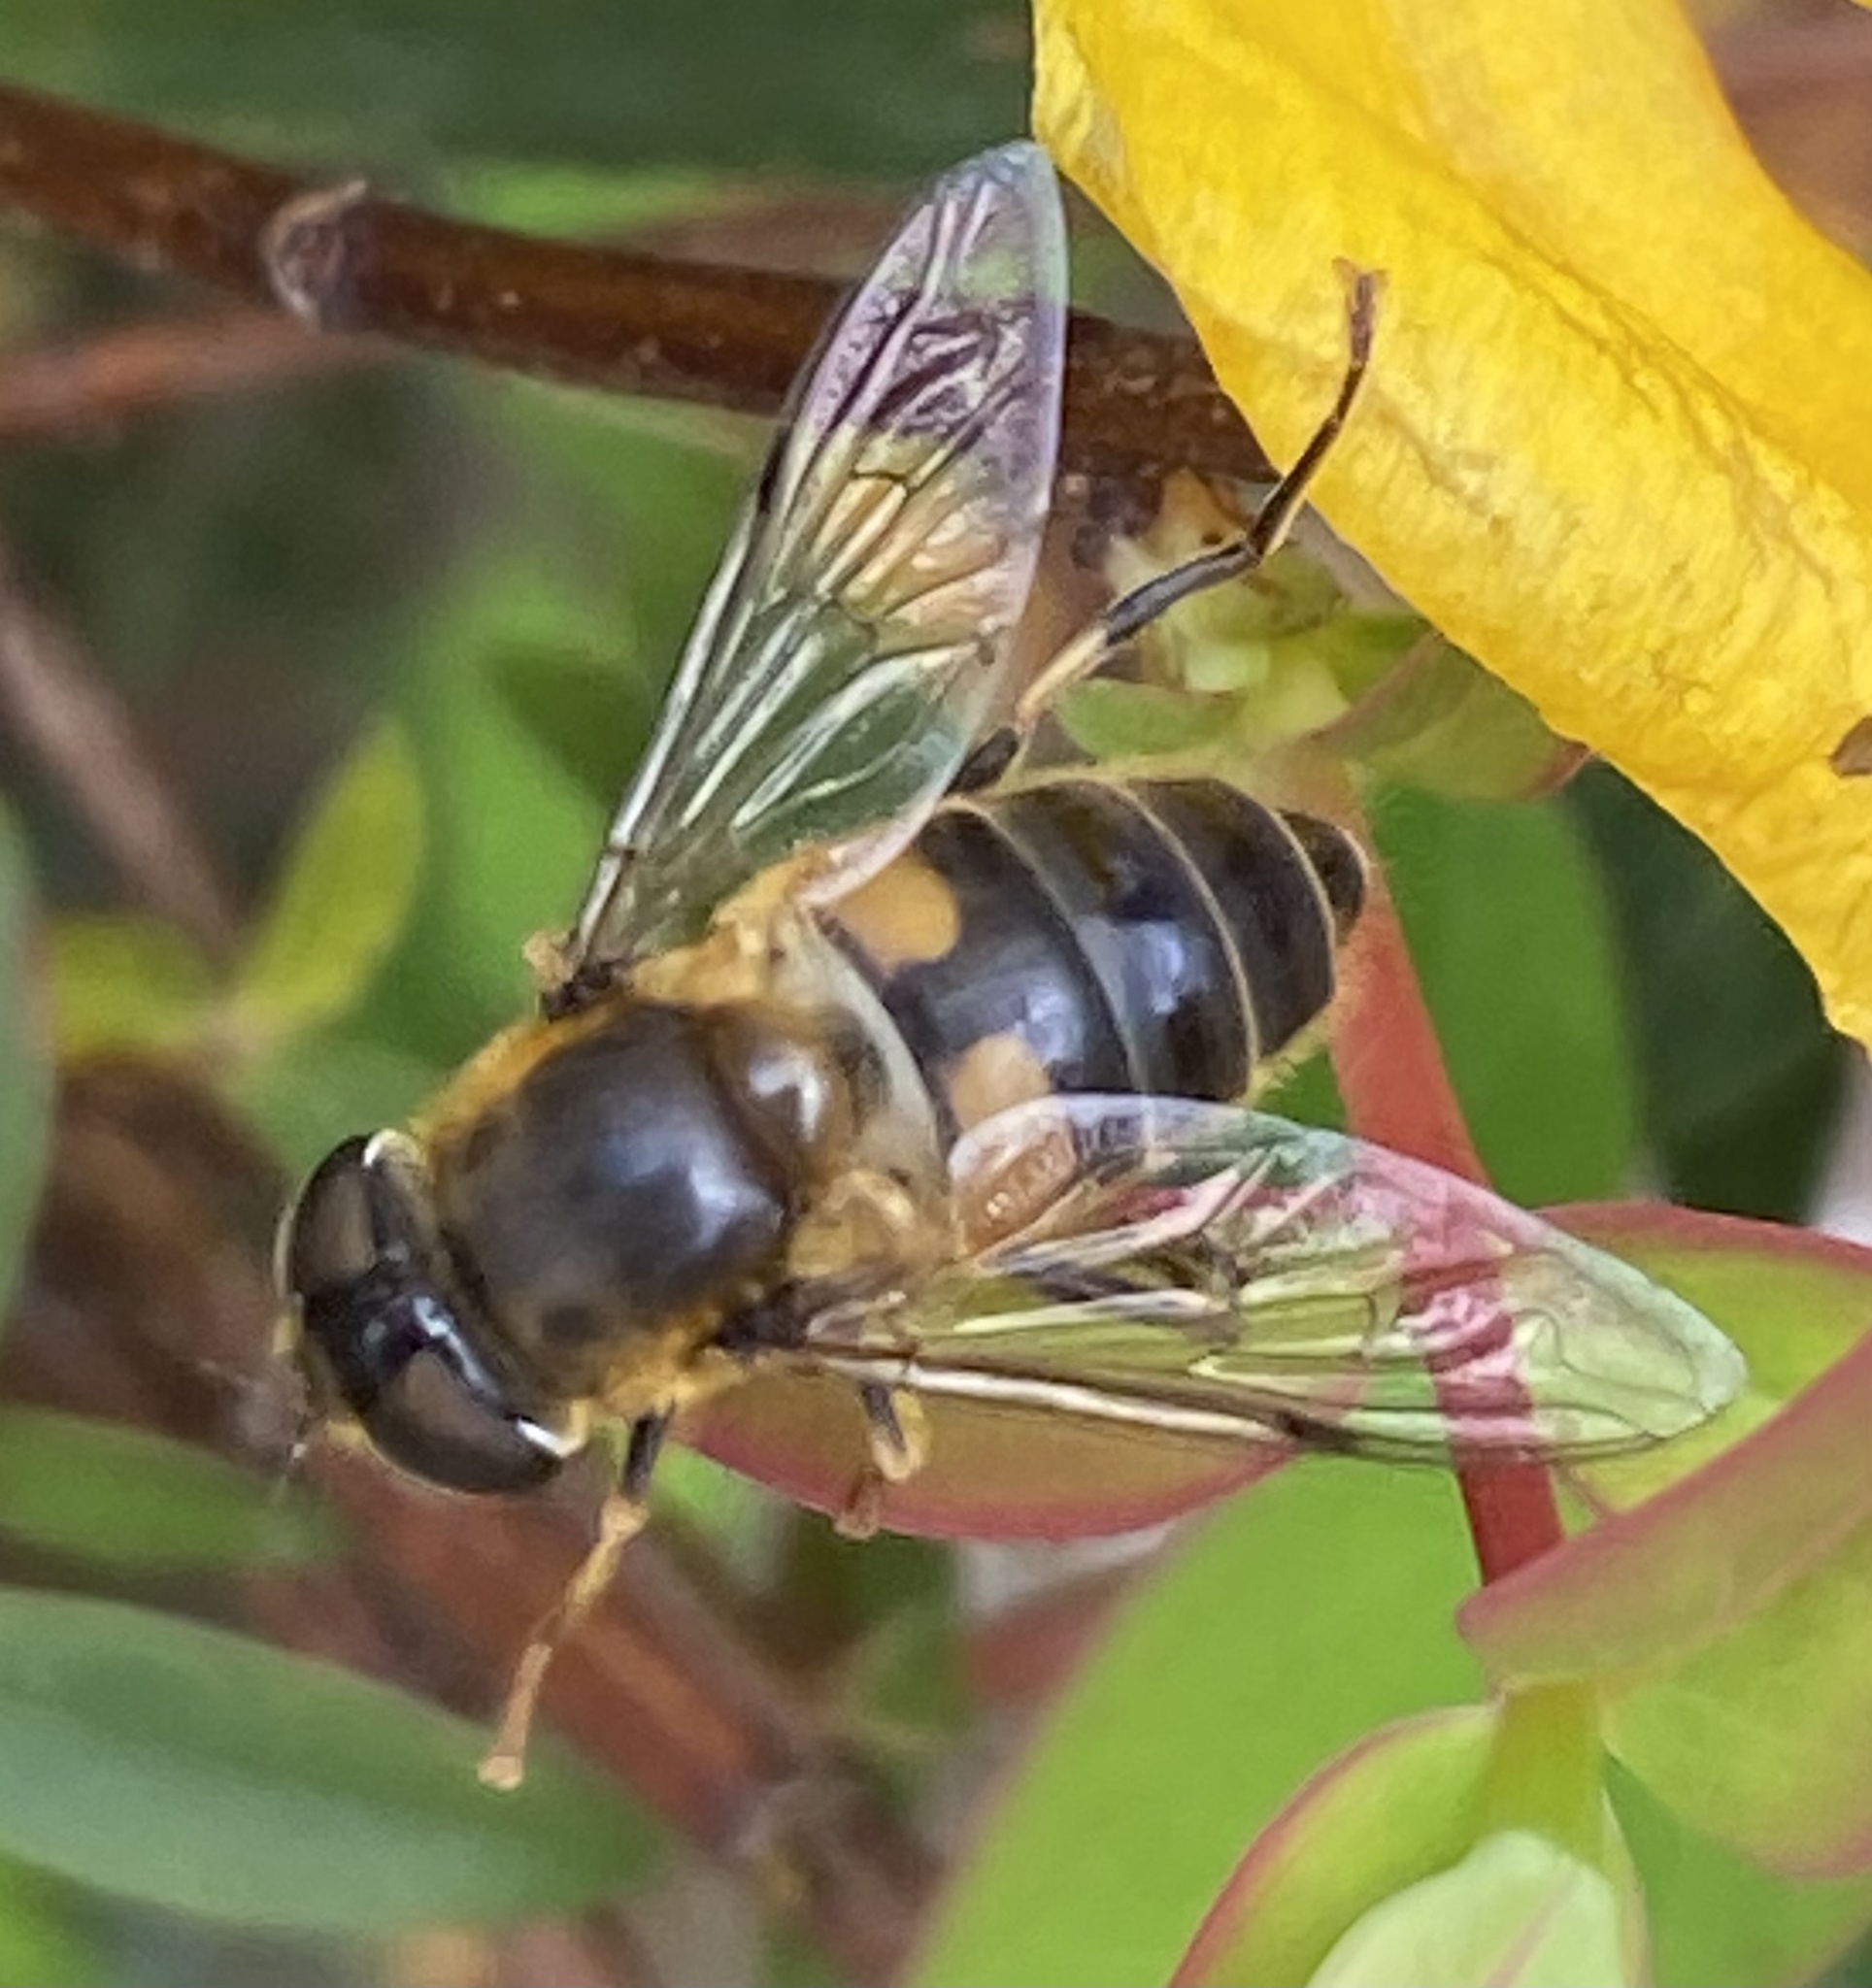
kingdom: Animalia
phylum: Arthropoda
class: Insecta
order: Diptera
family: Syrphidae
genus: Eristalis
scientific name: Eristalis pertinax
